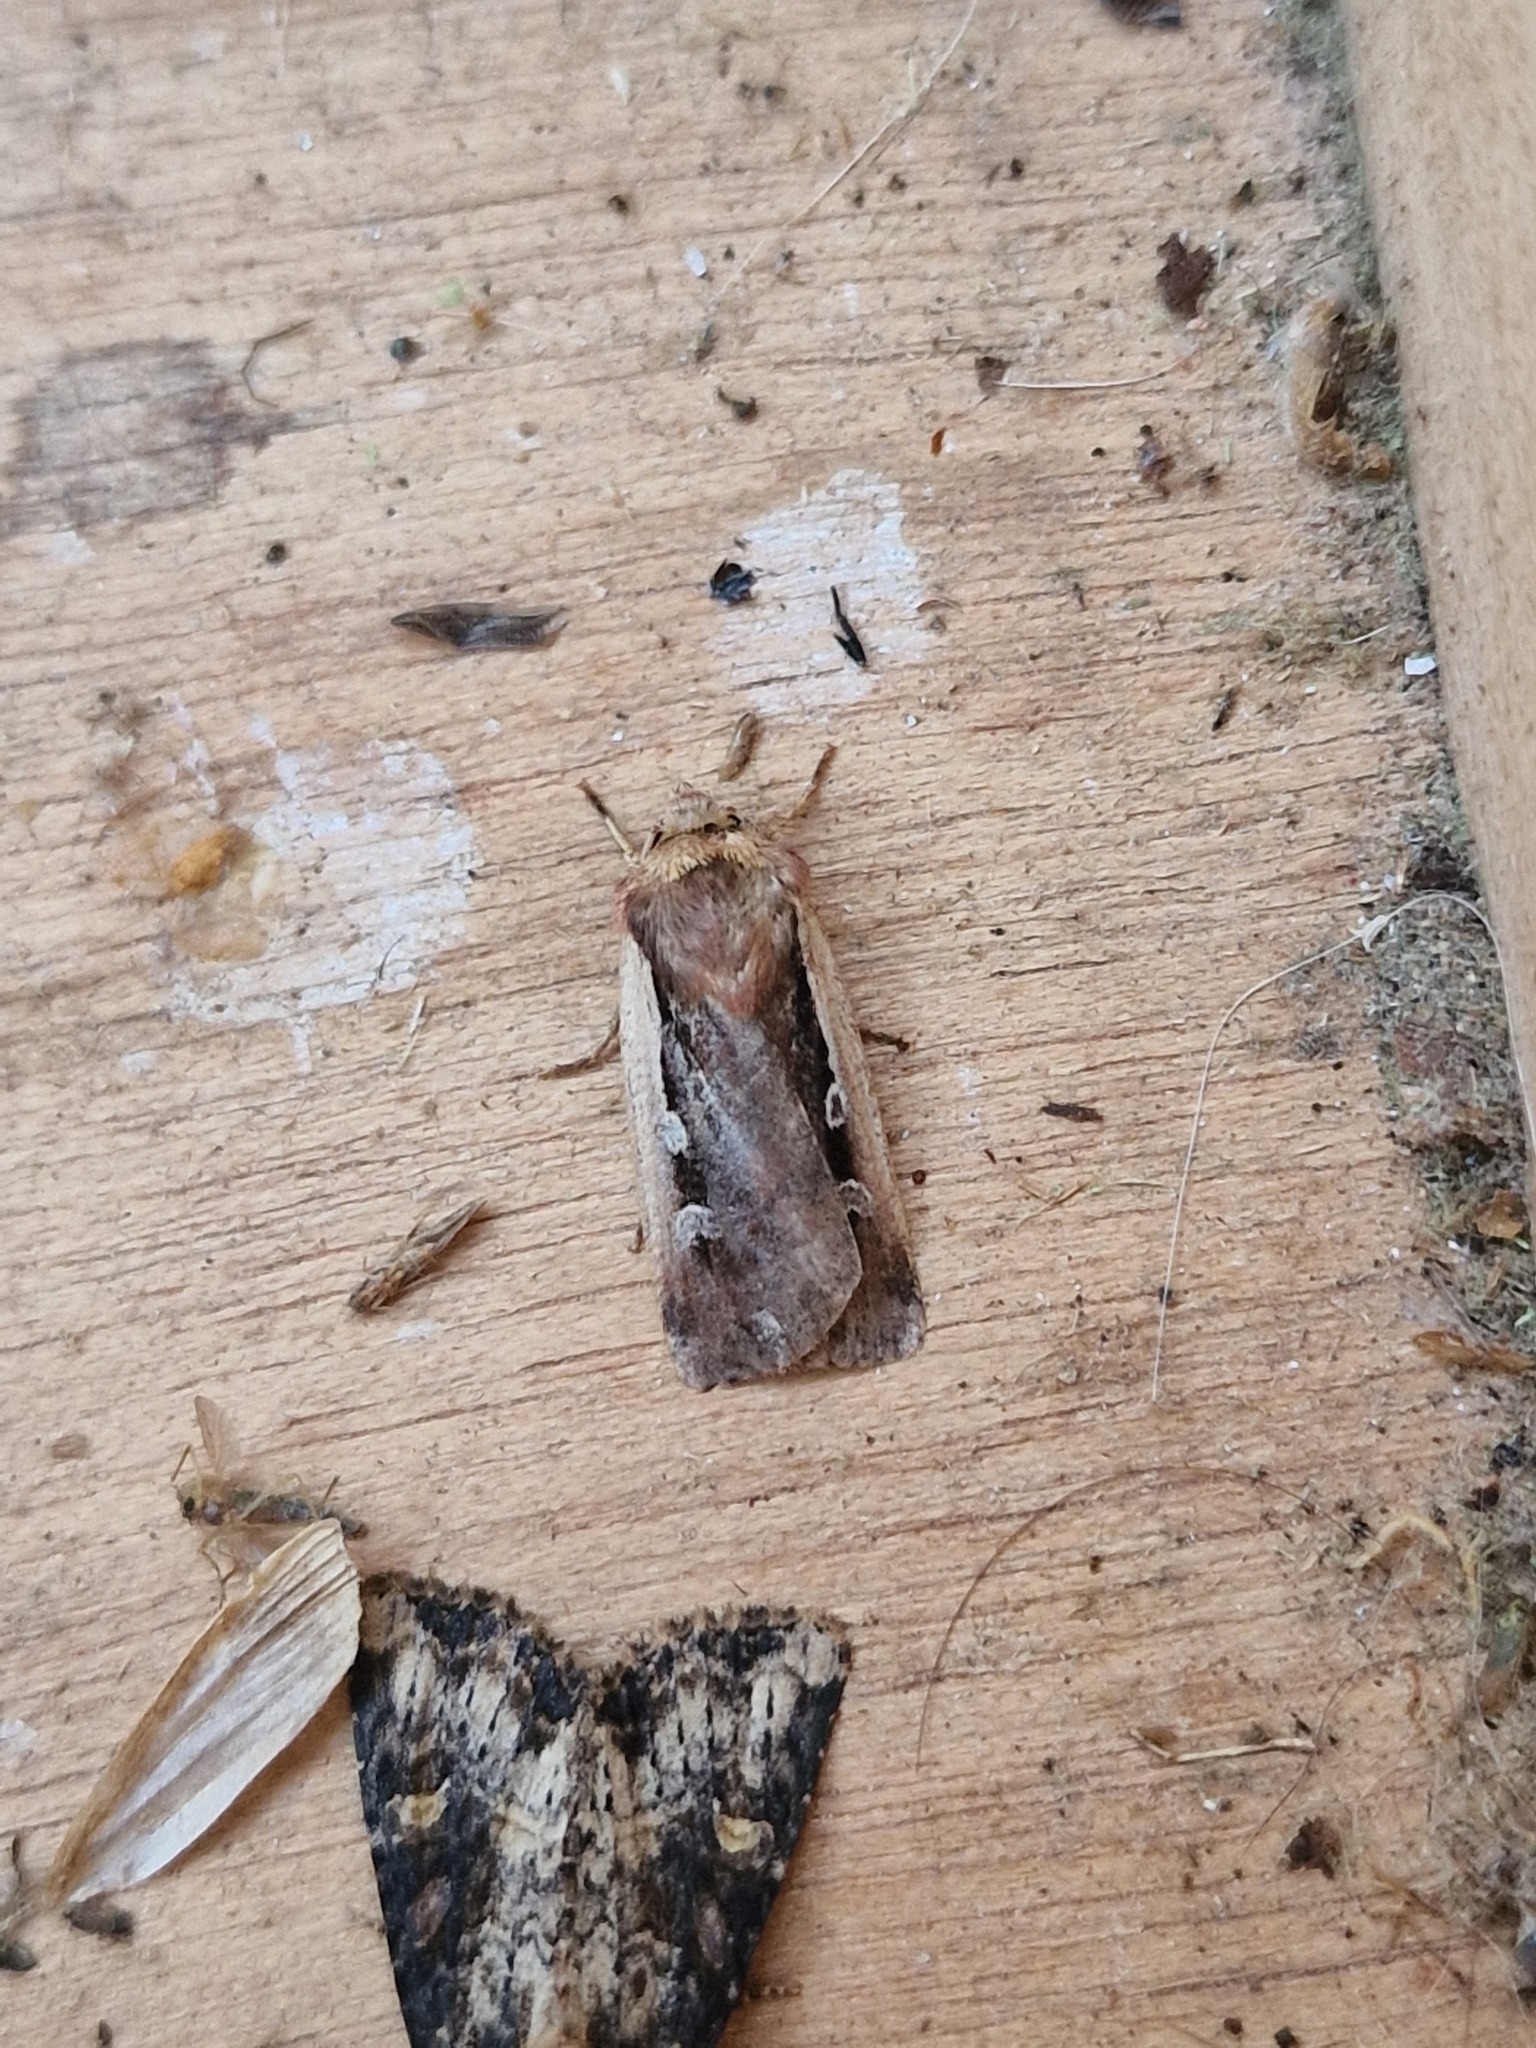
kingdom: Animalia
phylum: Arthropoda
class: Insecta
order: Lepidoptera
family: Noctuidae
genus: Ochropleura
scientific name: Ochropleura plecta
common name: Flame shoulder
